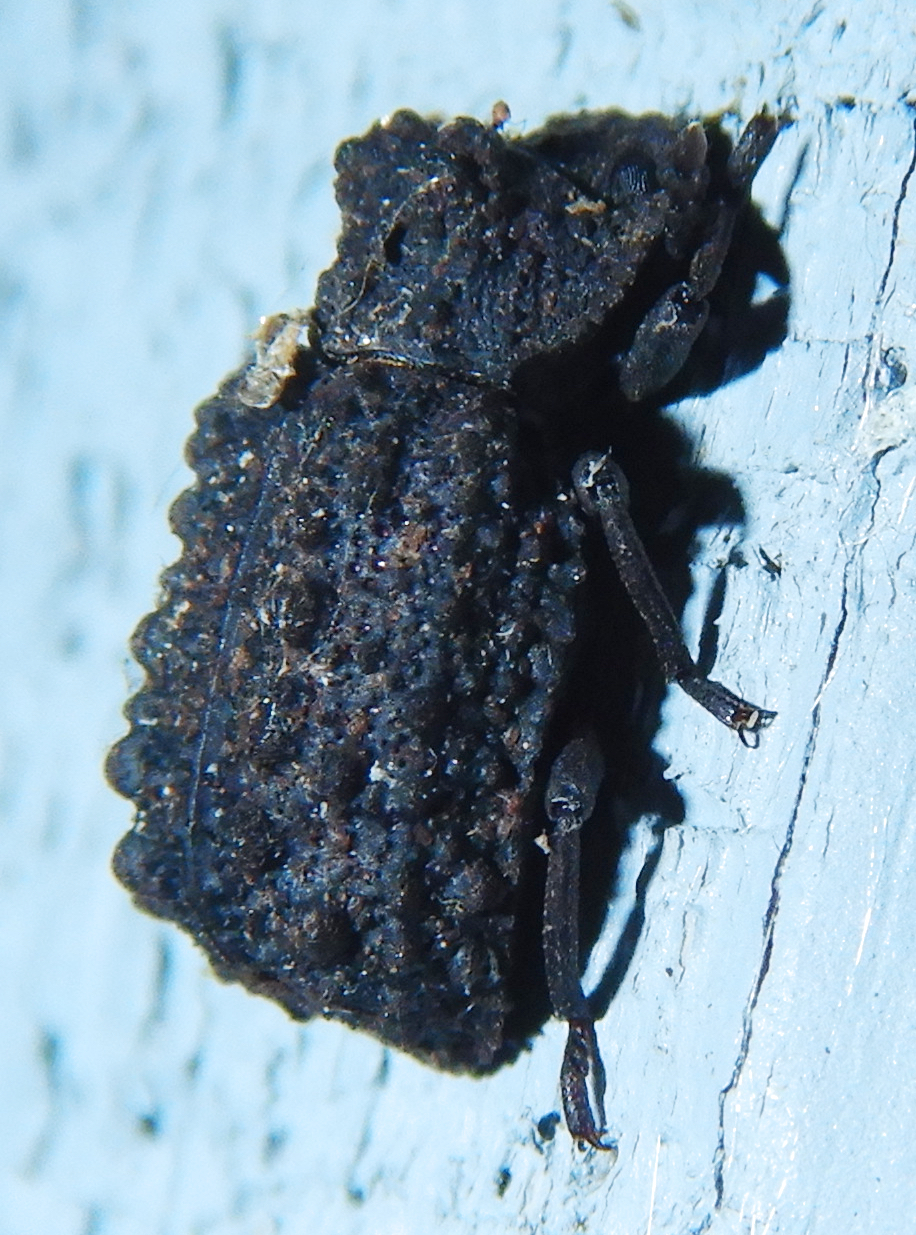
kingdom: Animalia
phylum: Arthropoda
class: Insecta
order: Coleoptera
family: Tenebrionidae
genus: Gnatocerus
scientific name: Gnatocerus cornutus
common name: Broad-horned flour beetle
